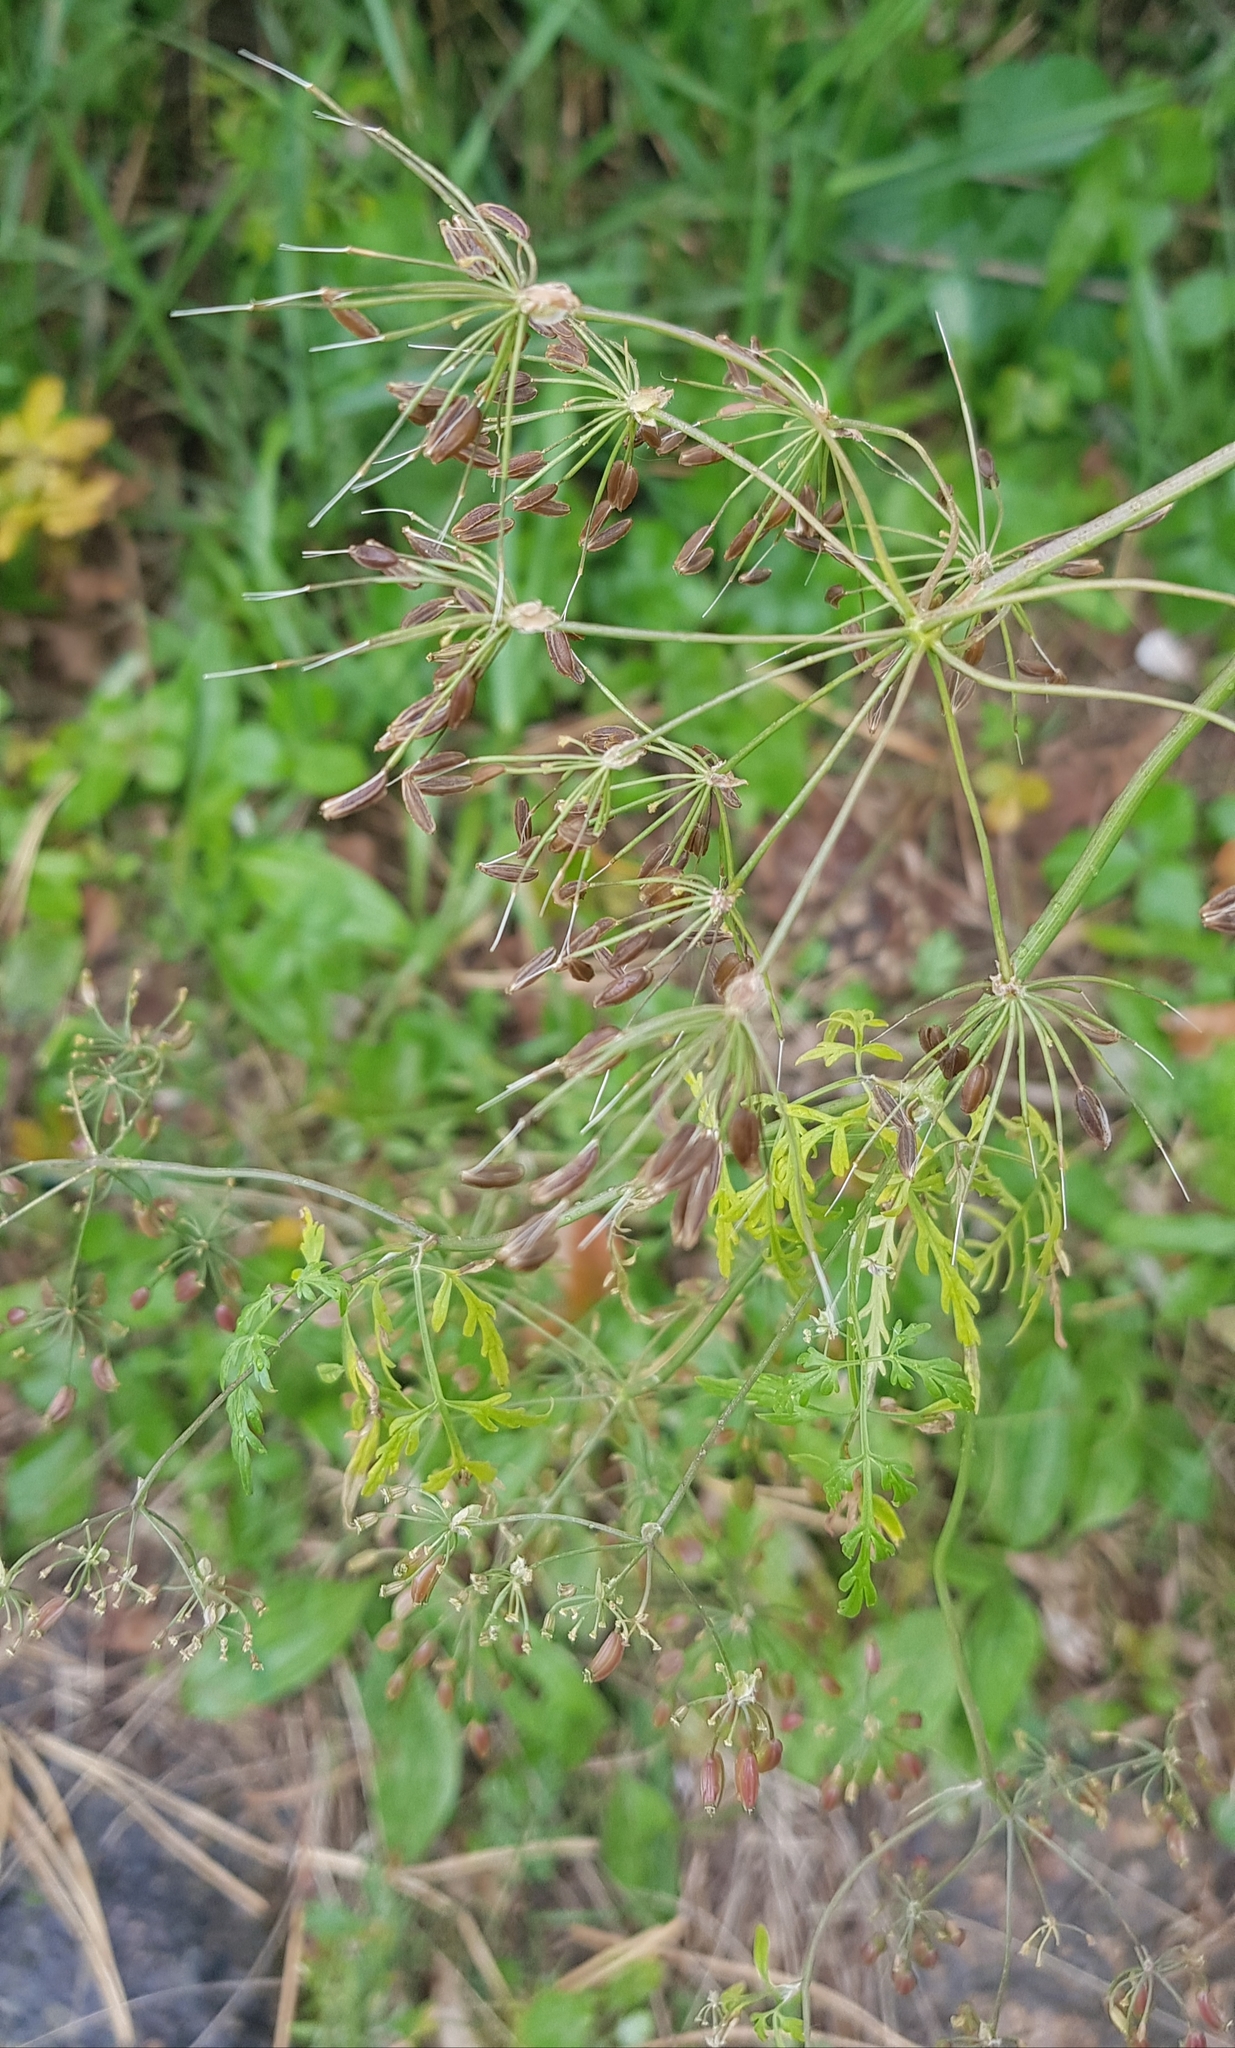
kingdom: Plantae
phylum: Tracheophyta
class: Magnoliopsida
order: Apiales
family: Apiaceae
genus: Sphallerocarpus
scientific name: Sphallerocarpus gracilis
